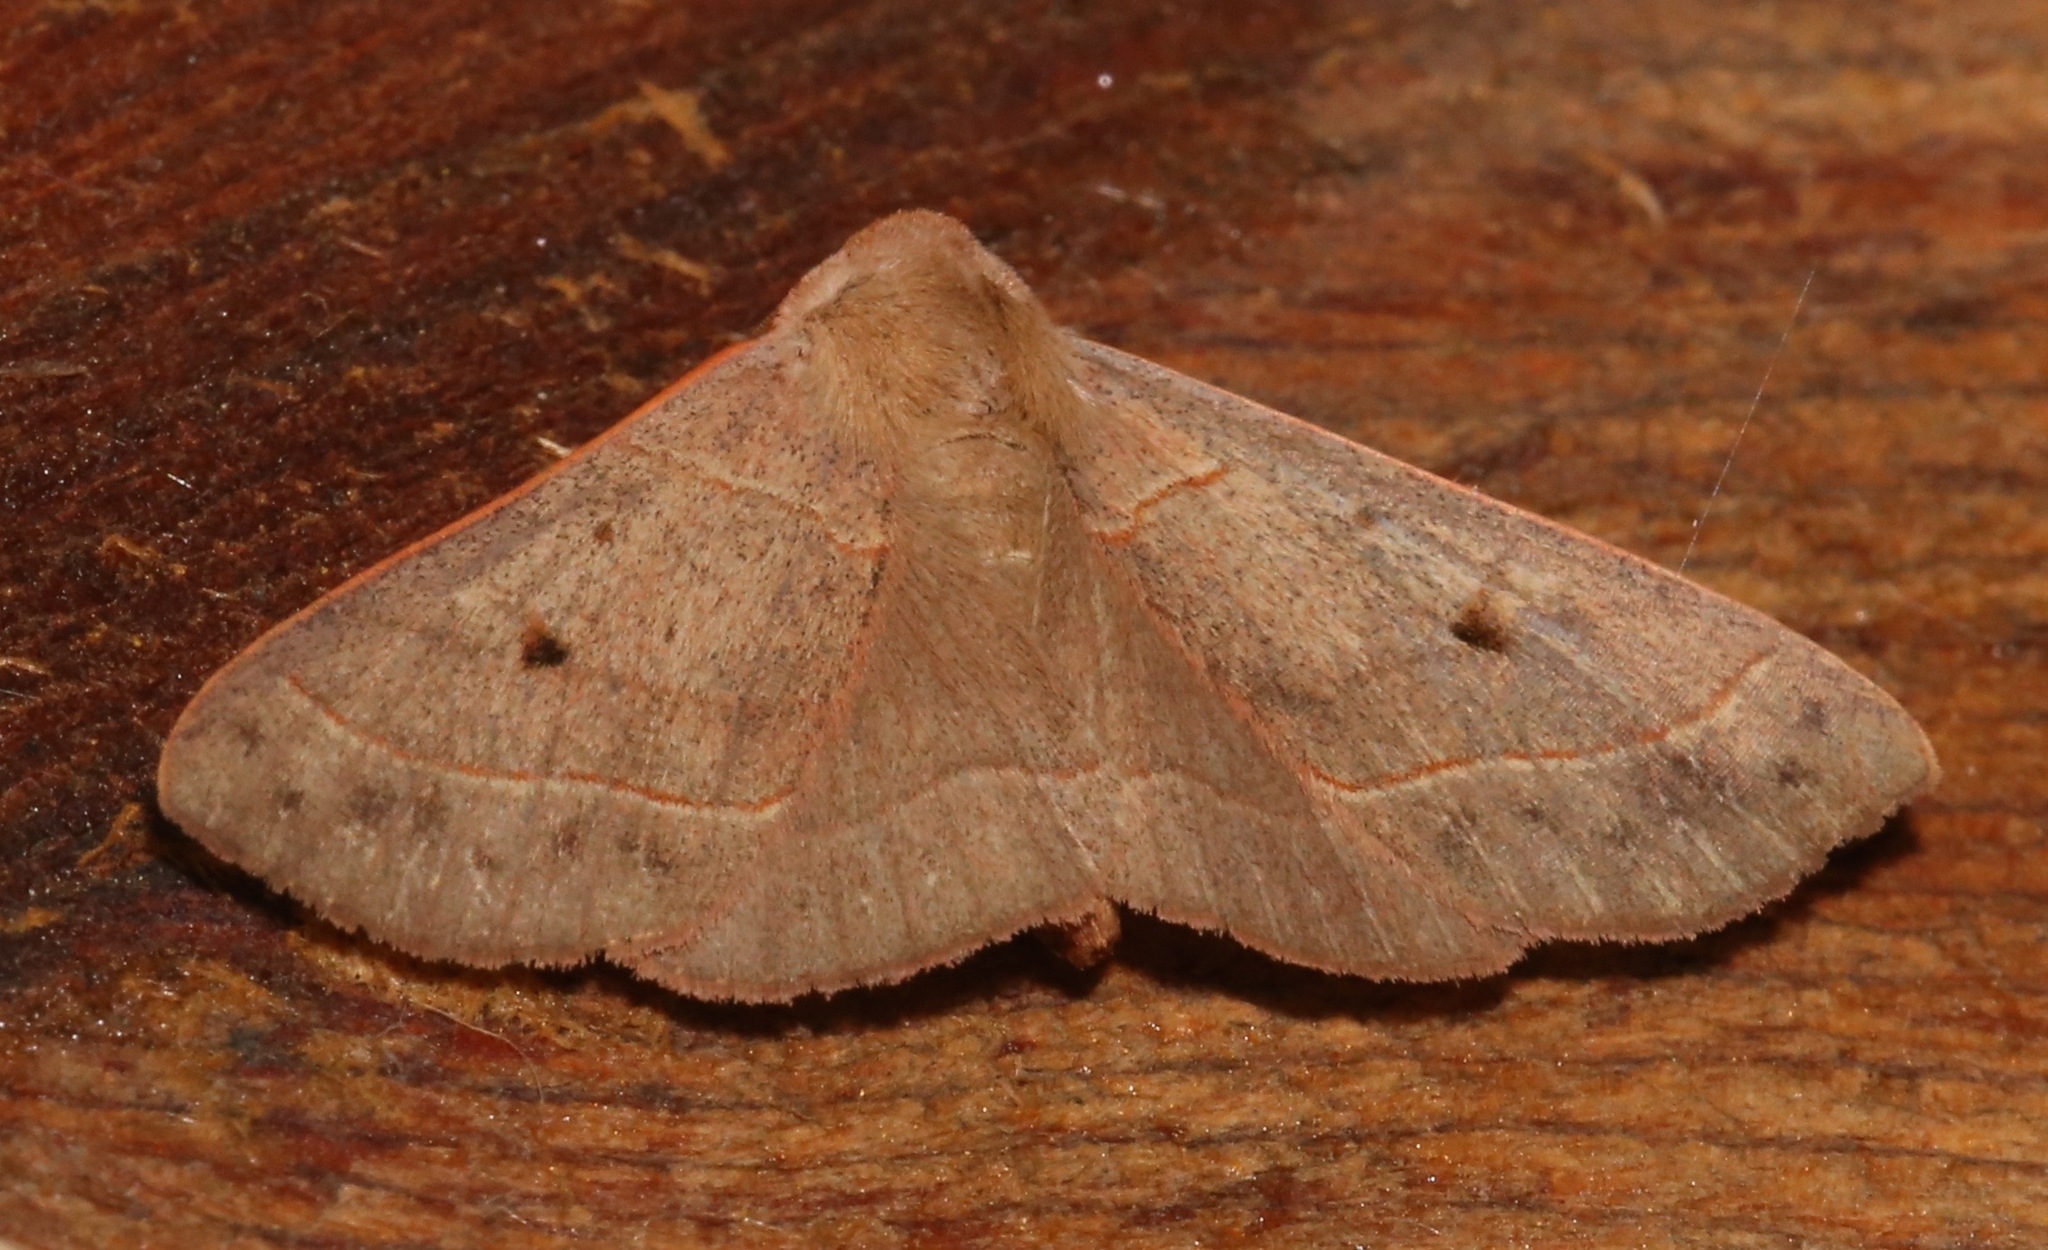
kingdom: Animalia
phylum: Arthropoda
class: Insecta
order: Lepidoptera
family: Erebidae
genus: Panopoda
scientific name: Panopoda rufimargo
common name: Red-lined panopoda moth
